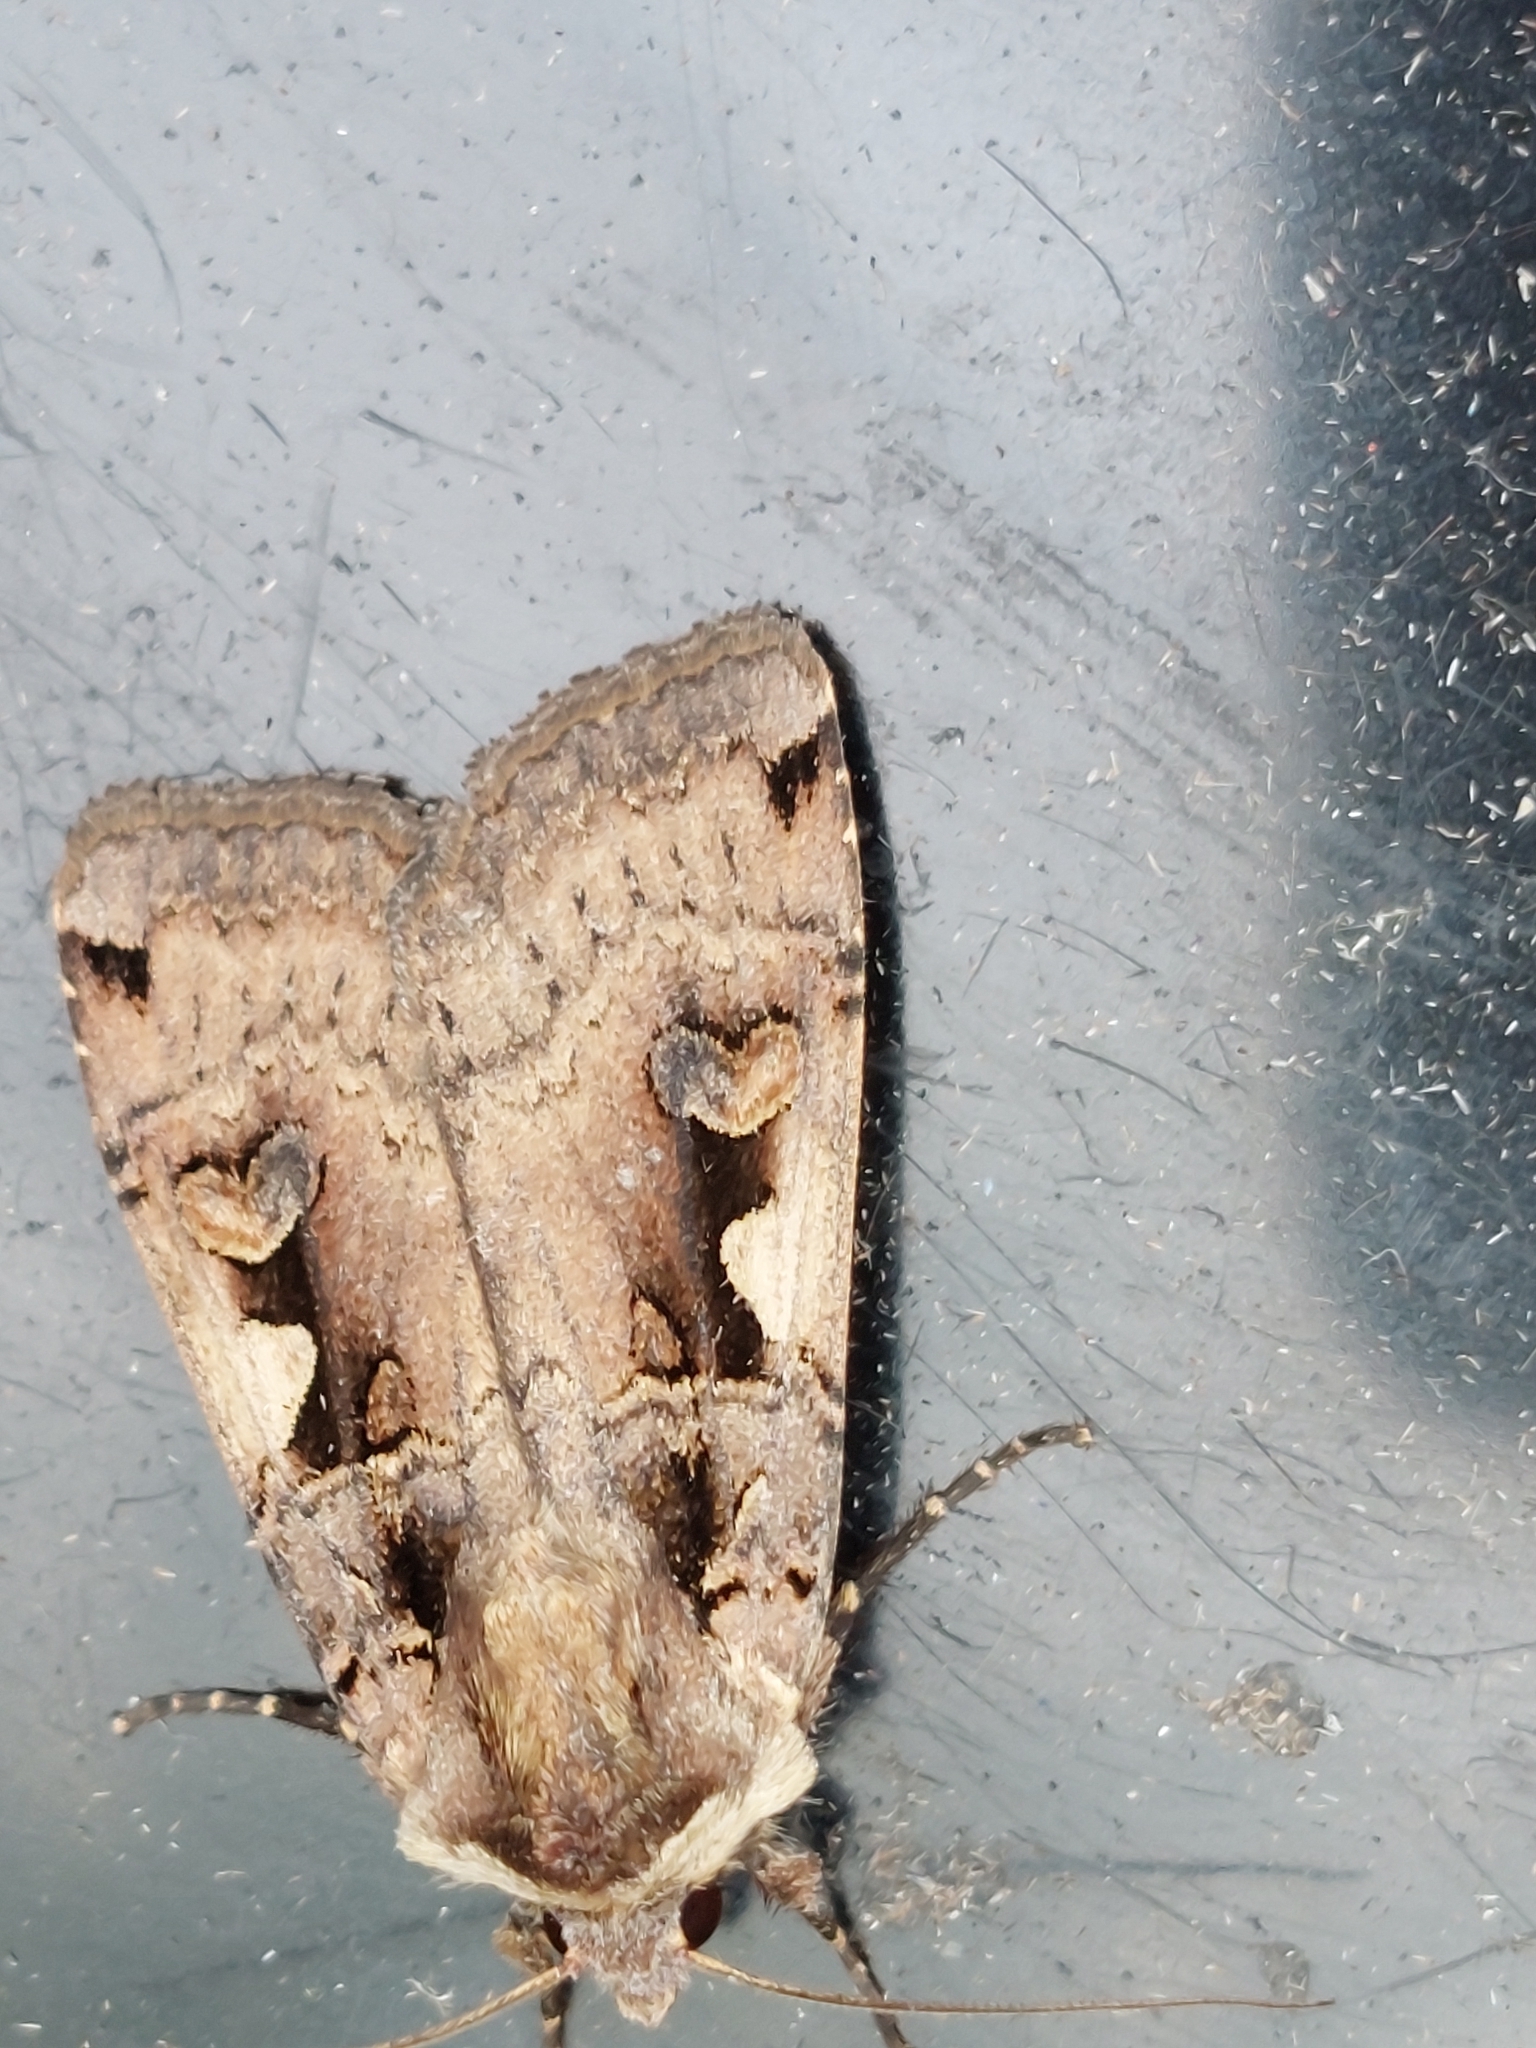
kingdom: Animalia
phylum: Arthropoda
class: Insecta
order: Lepidoptera
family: Noctuidae
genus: Xestia
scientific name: Xestia c-nigrum
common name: Setaceous hebrew character
